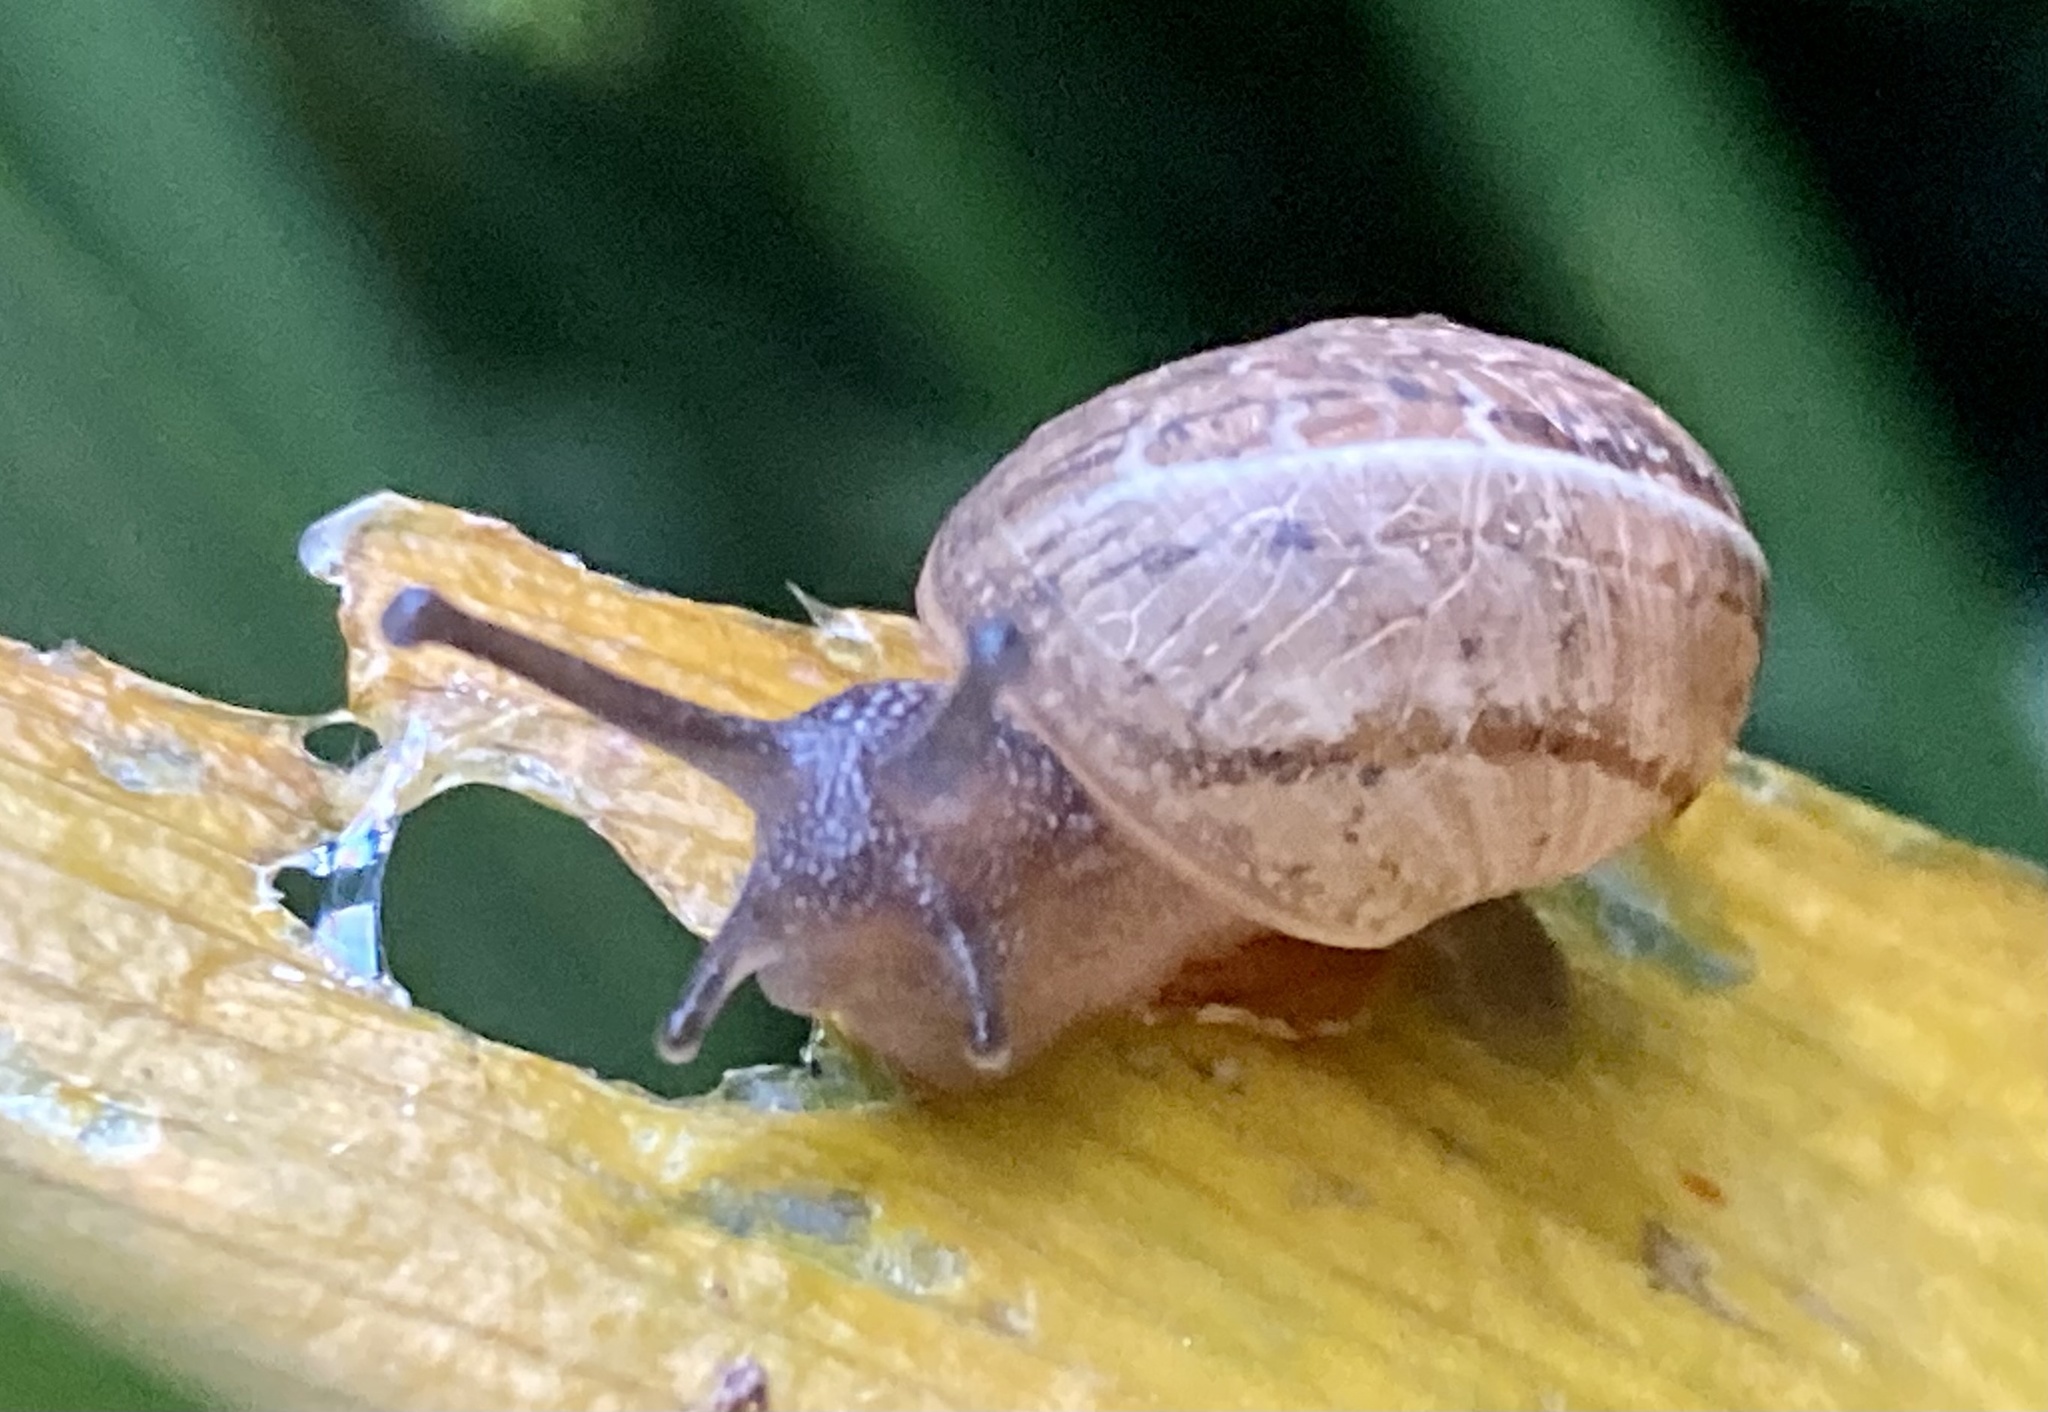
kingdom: Animalia
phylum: Mollusca
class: Gastropoda
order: Stylommatophora
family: Helicidae
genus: Cornu
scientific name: Cornu aspersum
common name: Brown garden snail
